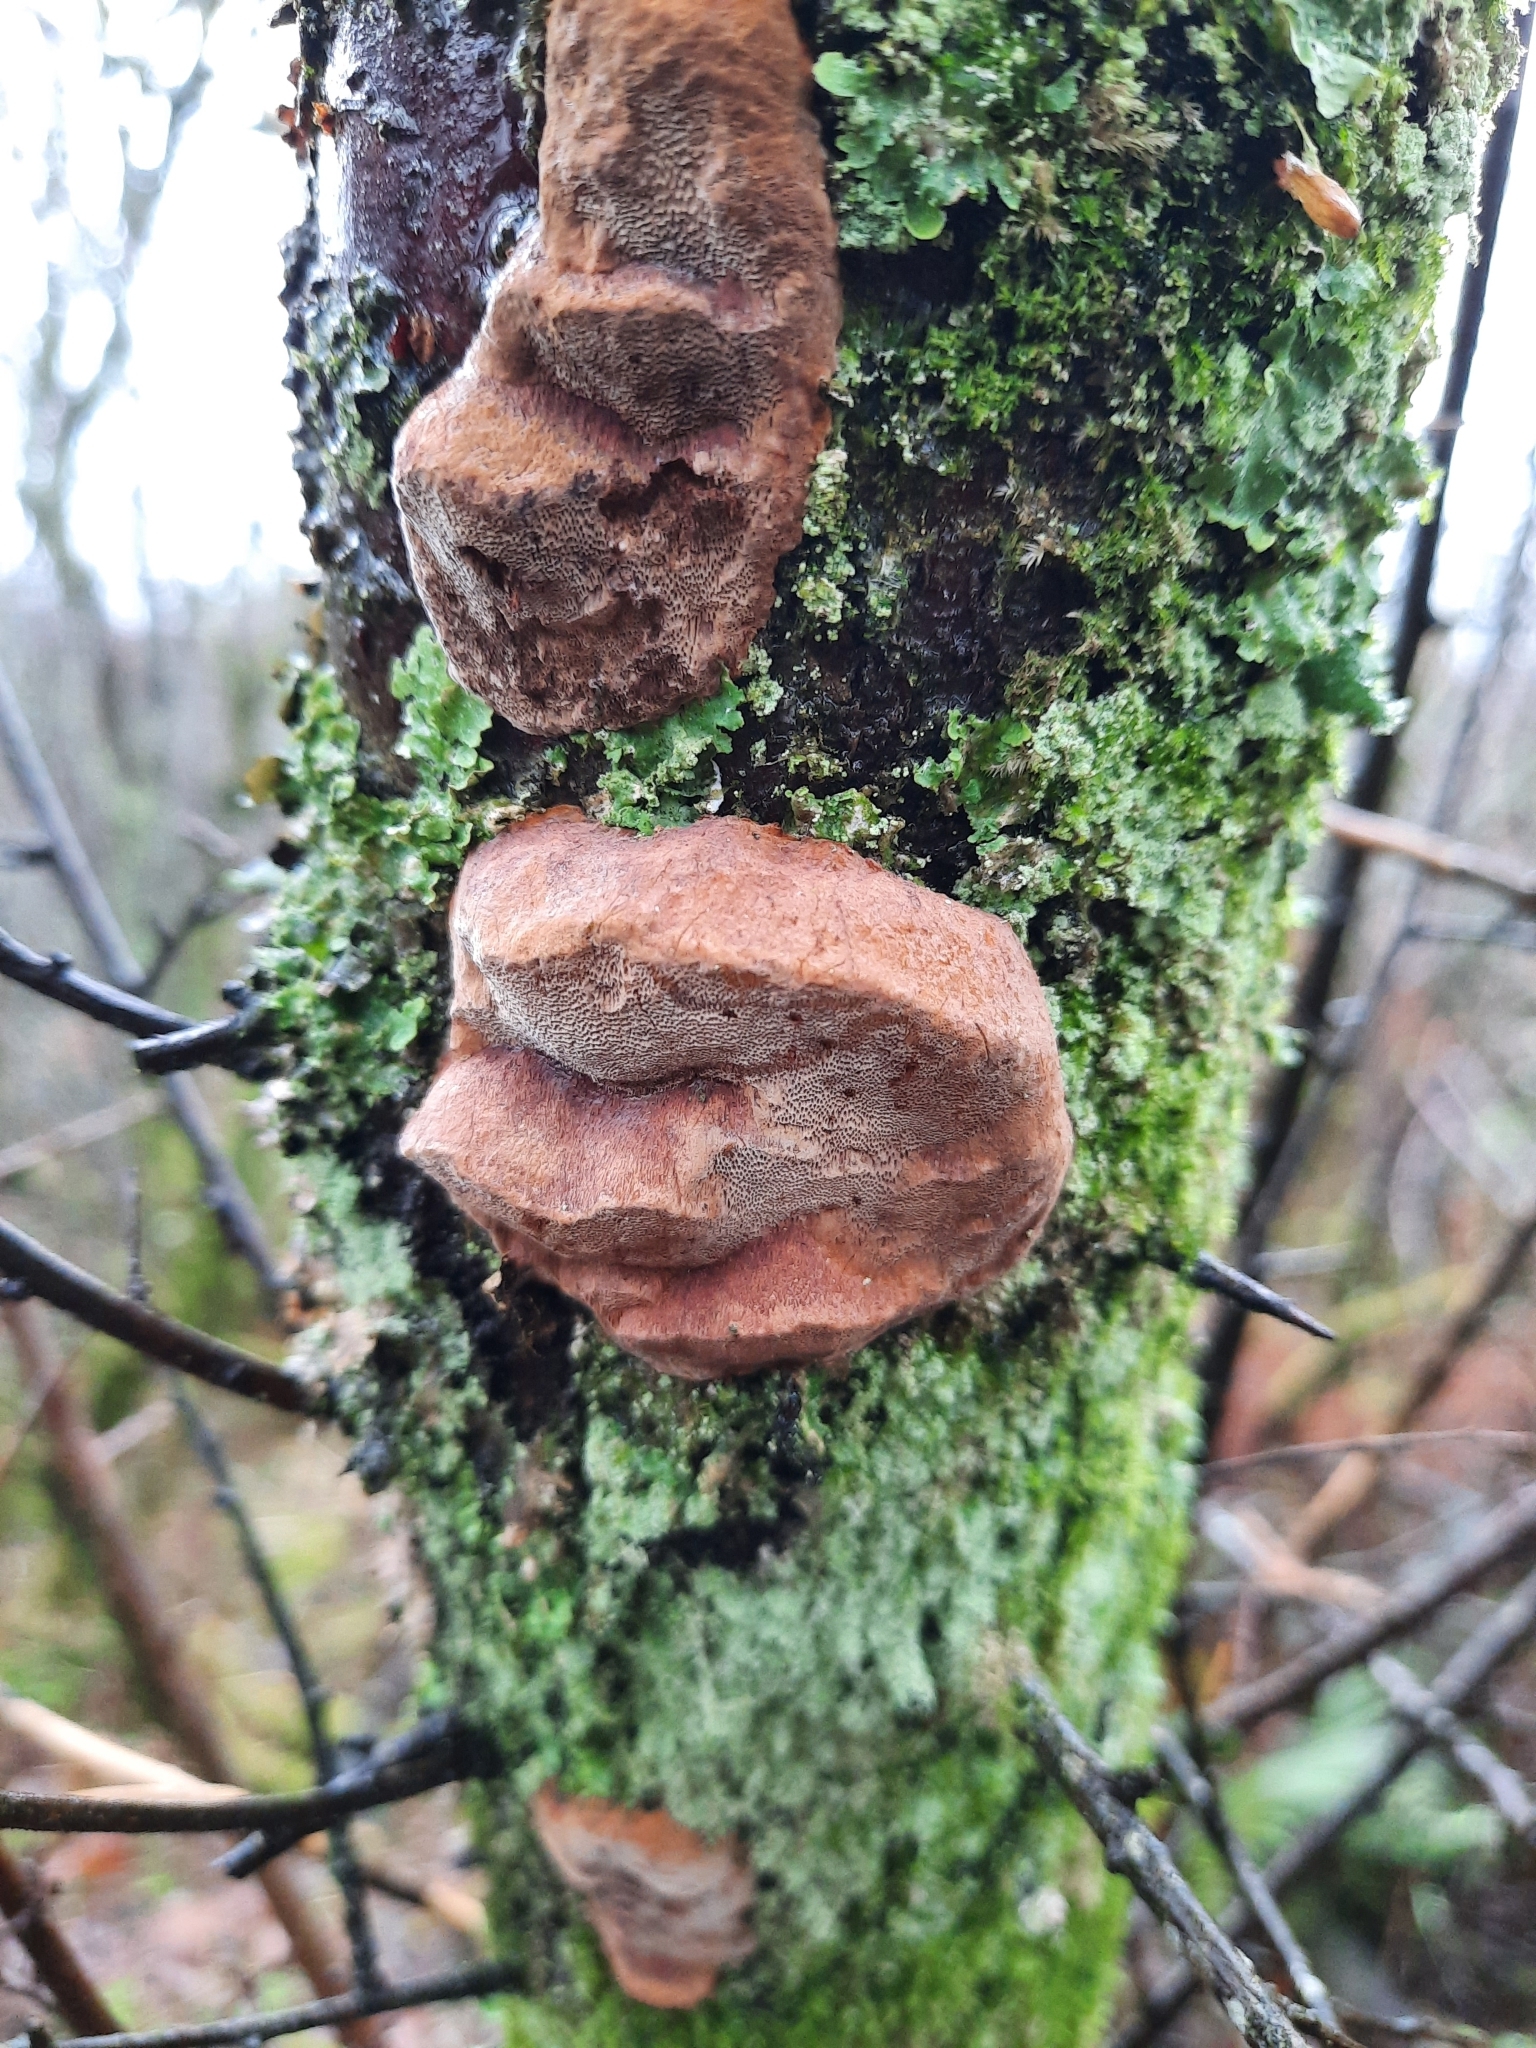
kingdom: Fungi
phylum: Basidiomycota
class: Agaricomycetes
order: Hymenochaetales
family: Hymenochaetaceae
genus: Phellinus
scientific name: Phellinus pomaceus
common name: Cushion bracket
